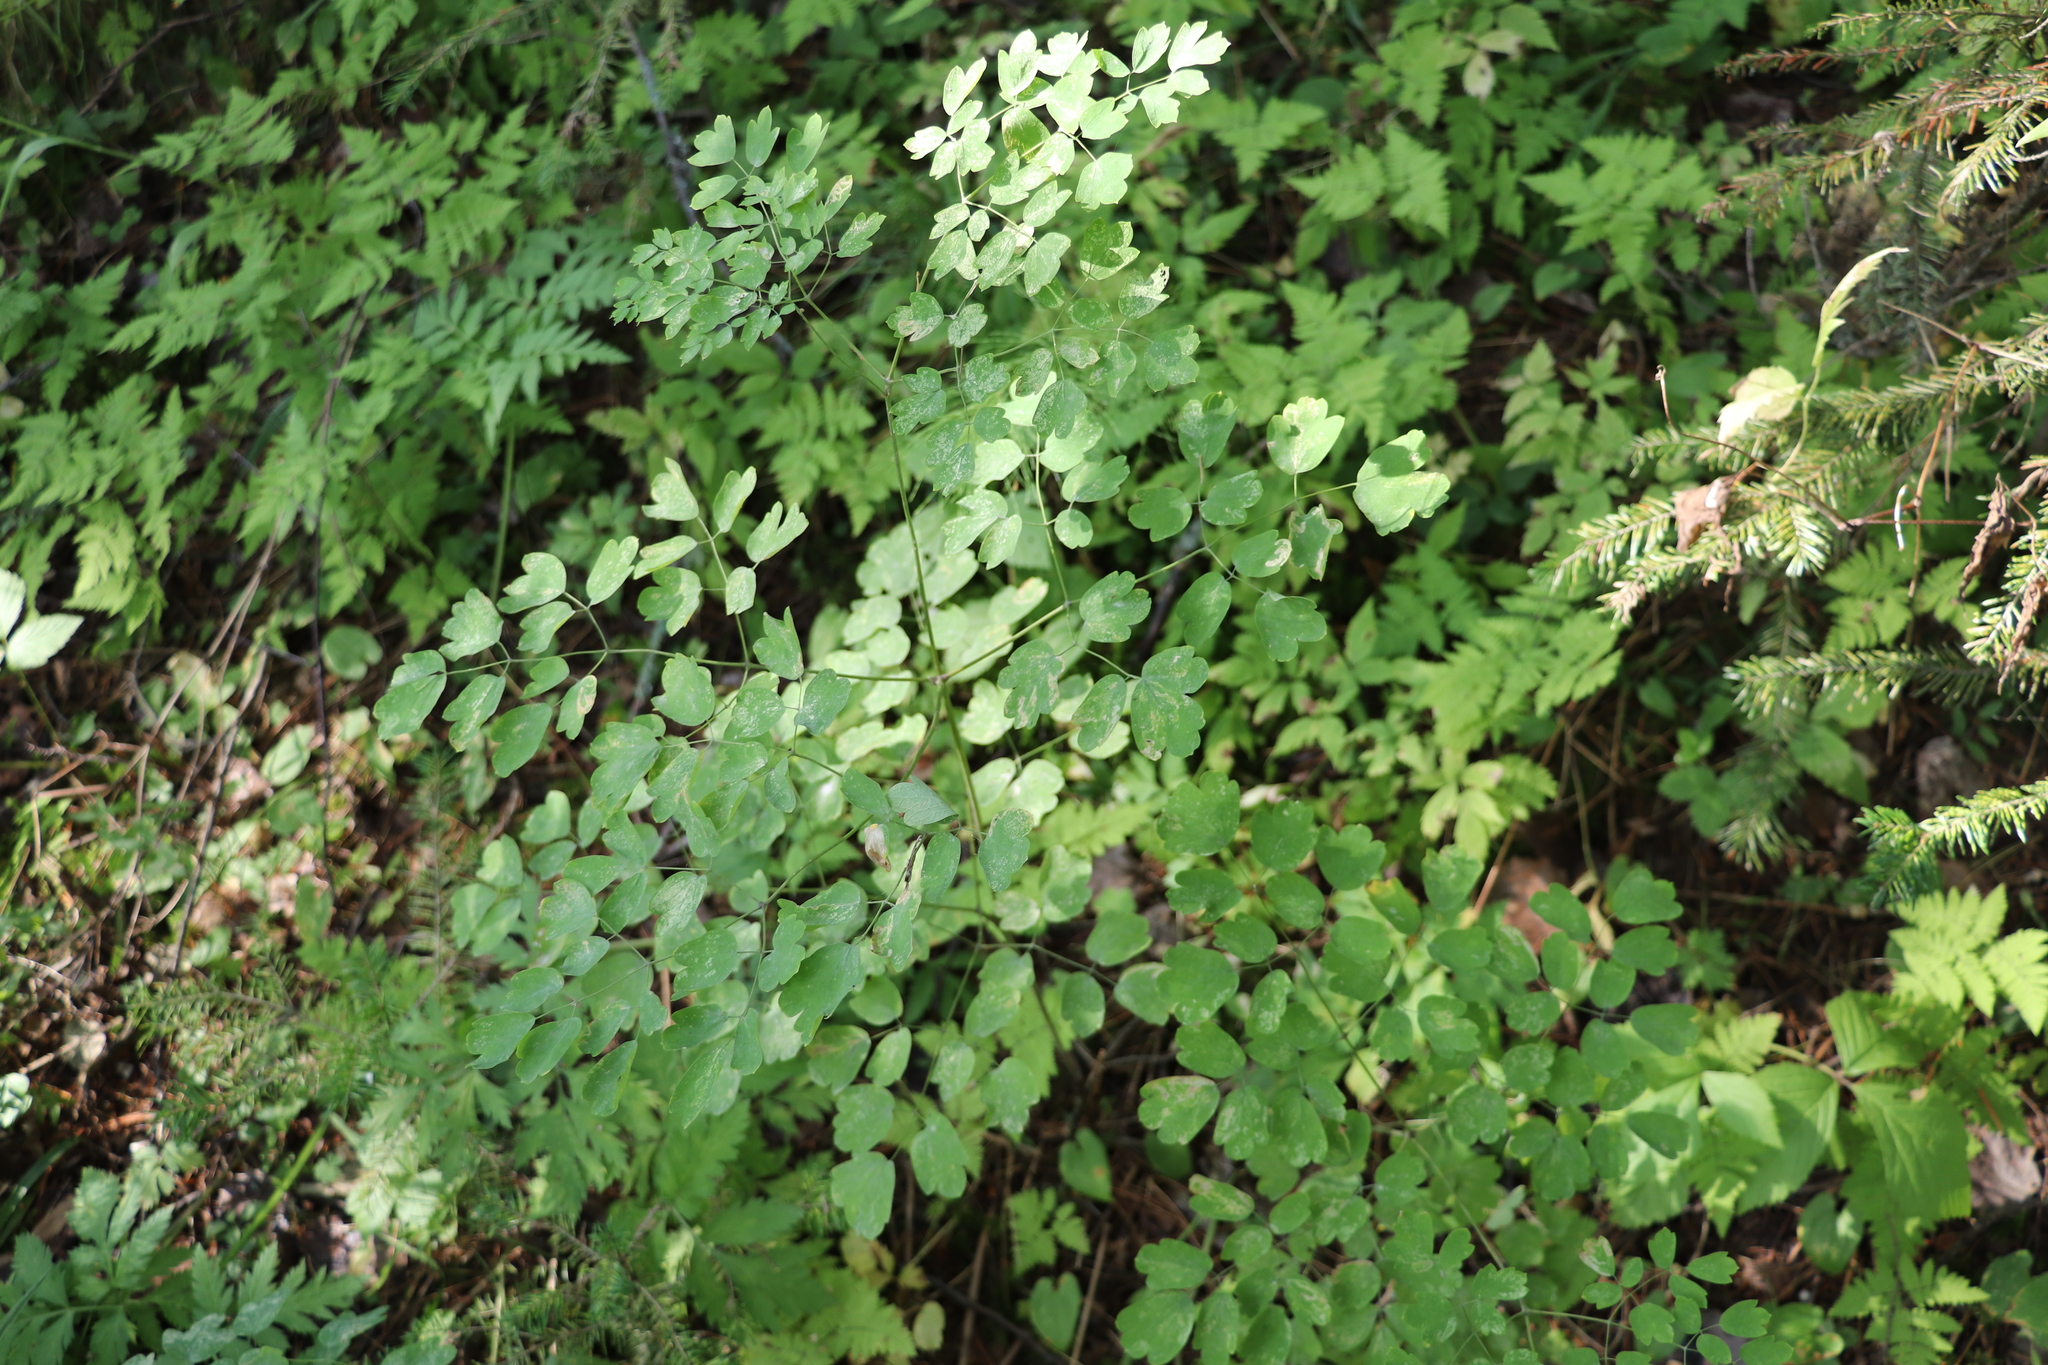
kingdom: Plantae
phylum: Tracheophyta
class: Magnoliopsida
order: Ranunculales
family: Ranunculaceae
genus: Thalictrum
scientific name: Thalictrum minus
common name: Lesser meadow-rue
